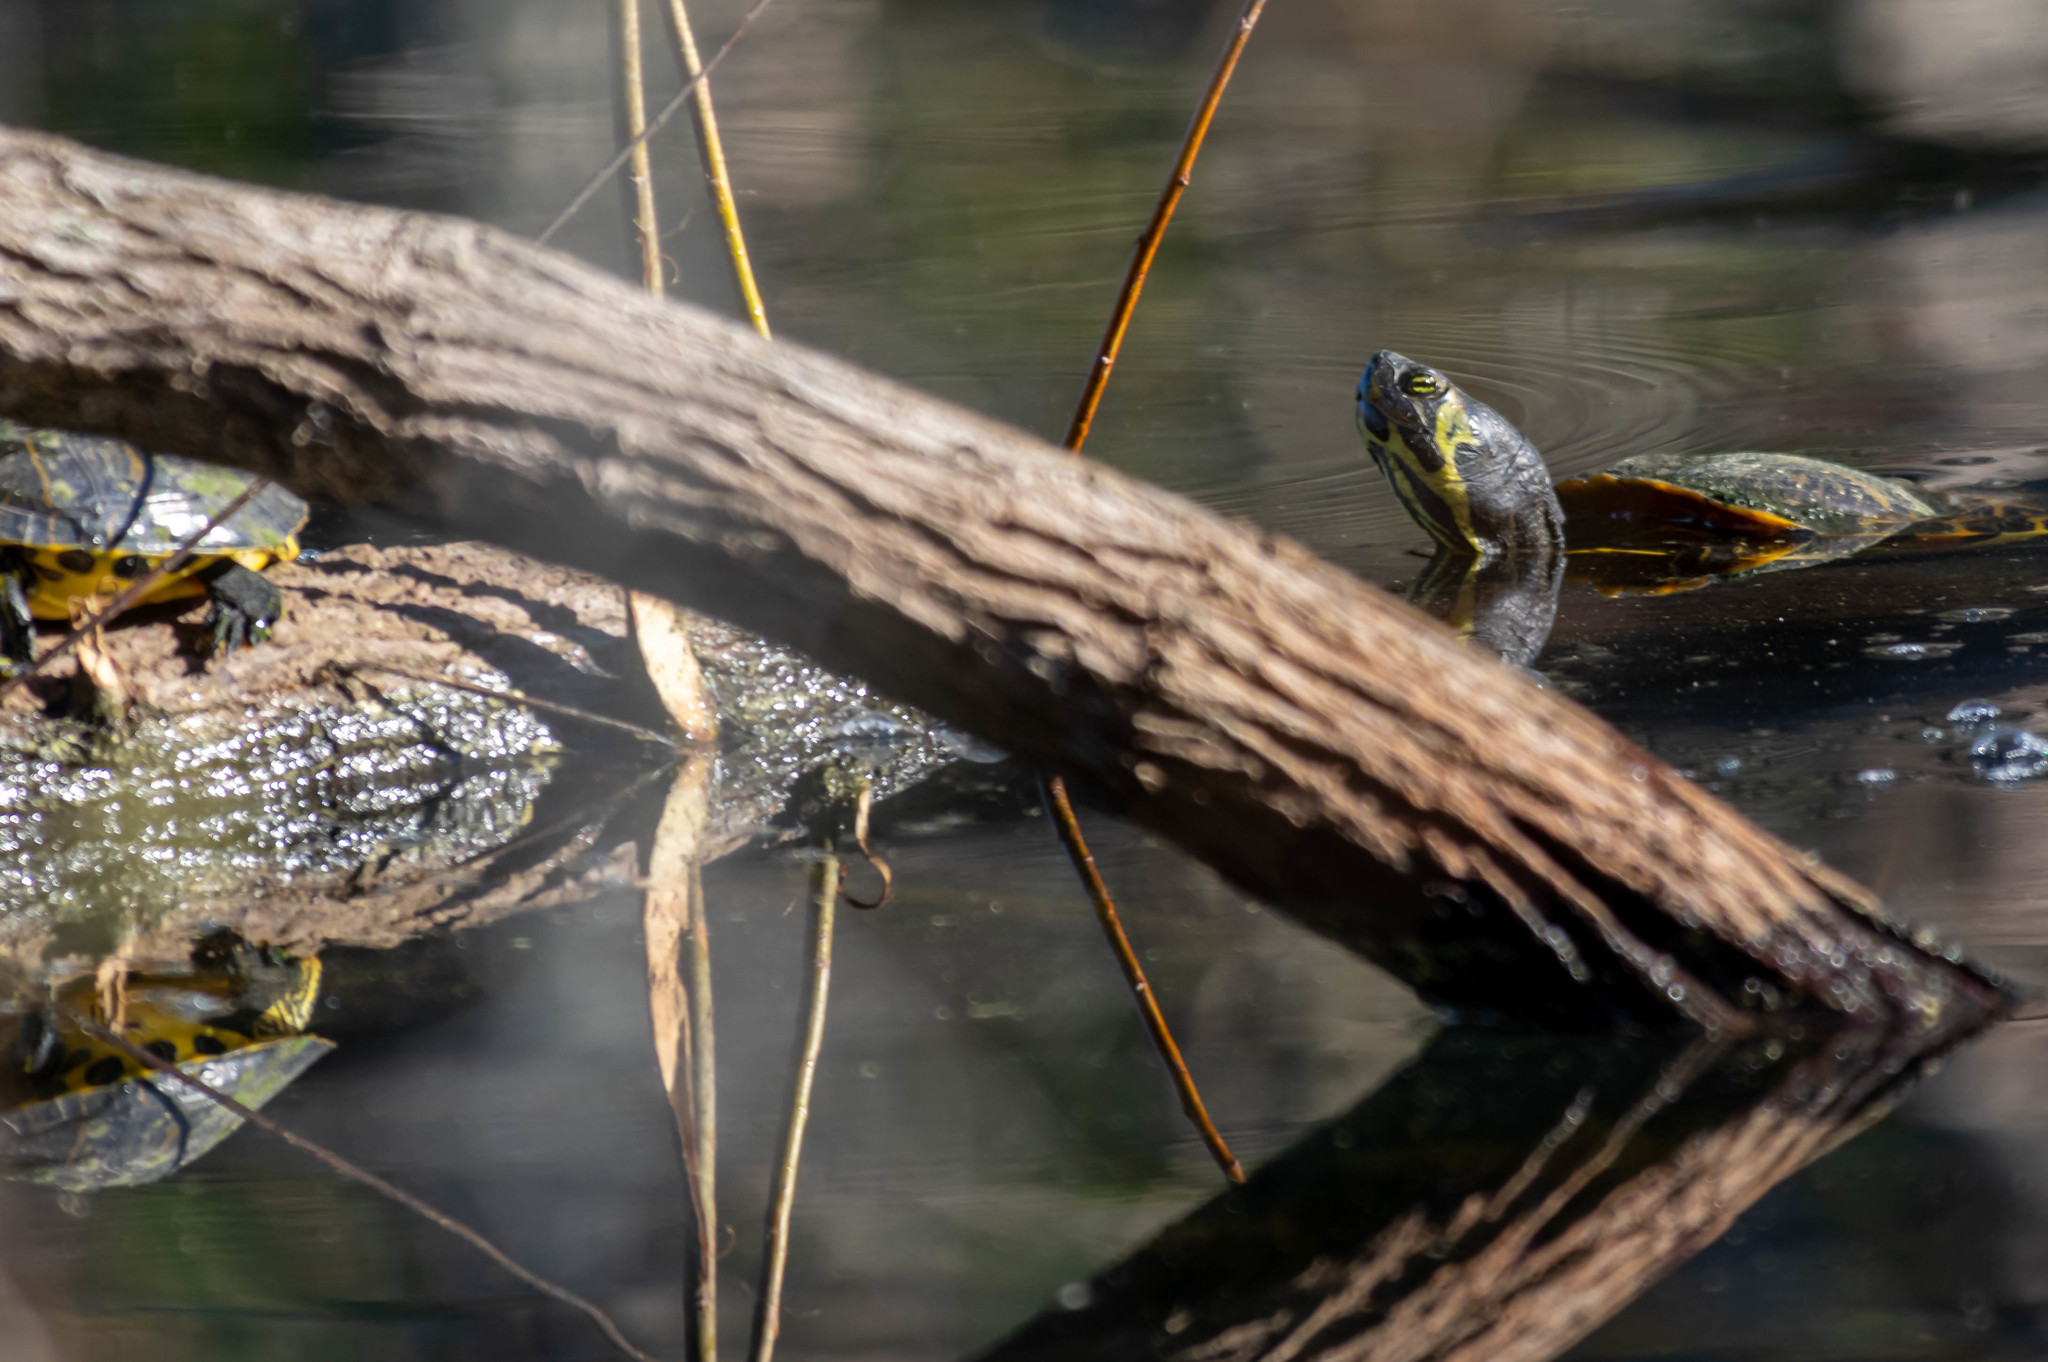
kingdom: Animalia
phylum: Chordata
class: Testudines
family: Emydidae
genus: Trachemys
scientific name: Trachemys scripta
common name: Slider
